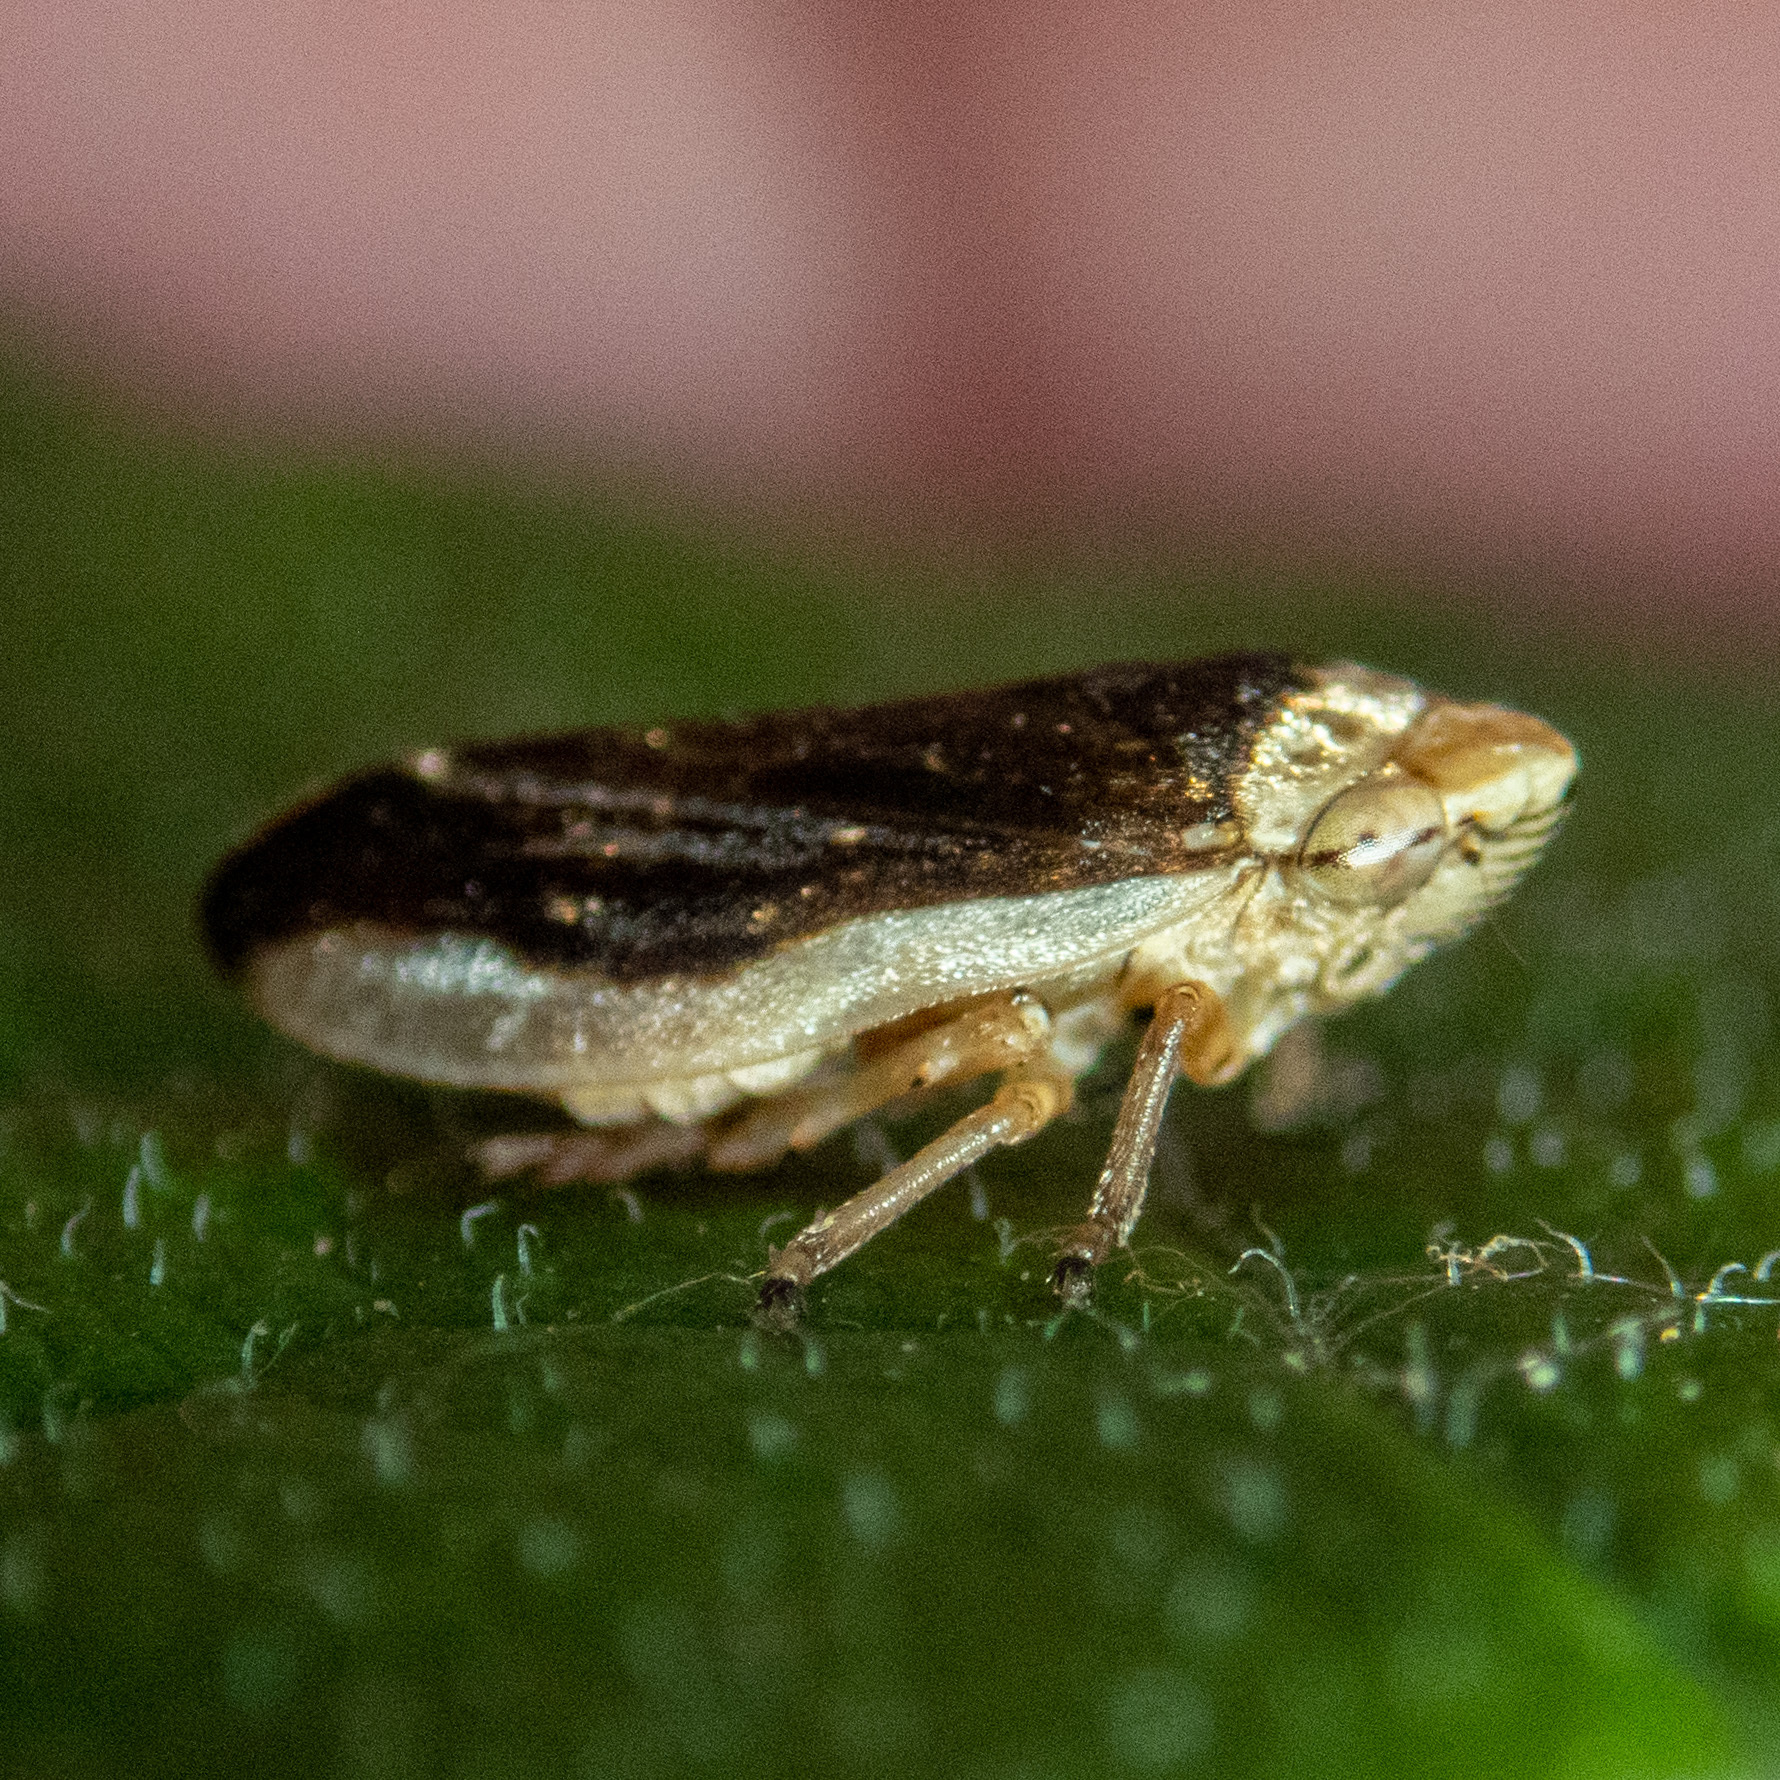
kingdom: Animalia
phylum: Arthropoda
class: Insecta
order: Hemiptera
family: Aphrophoridae
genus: Philaenus
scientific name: Philaenus spumarius
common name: Meadow spittlebug
